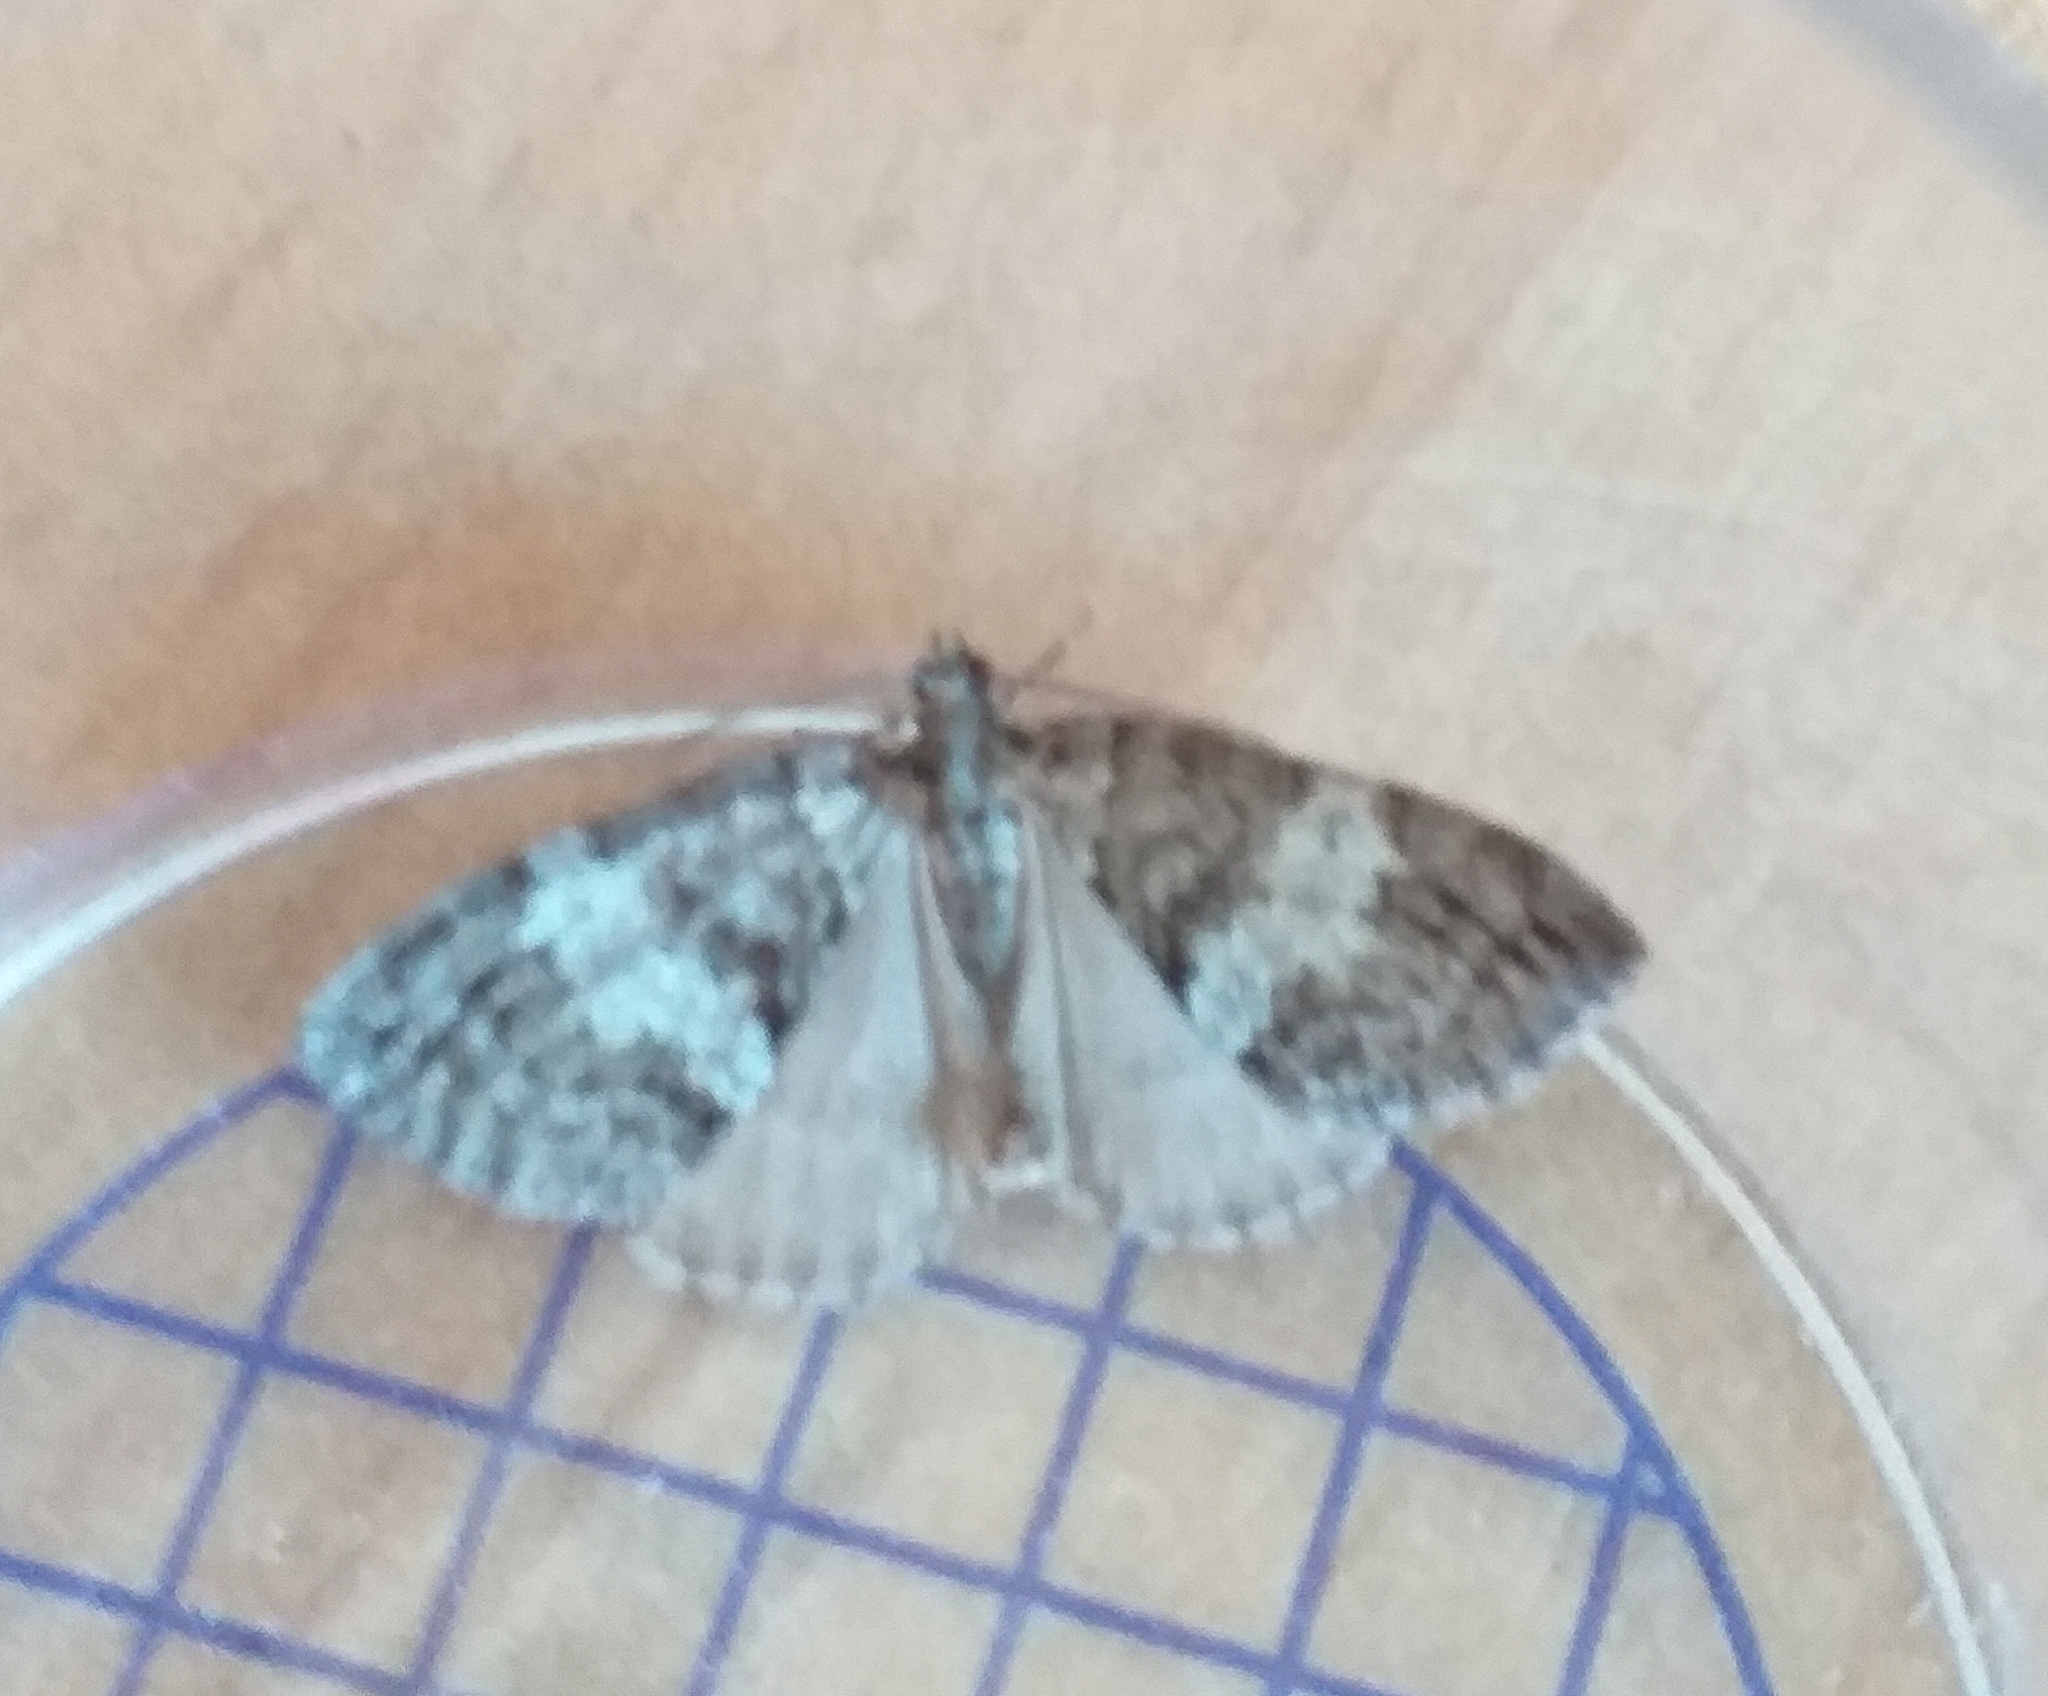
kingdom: Animalia
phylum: Arthropoda
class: Insecta
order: Lepidoptera
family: Geometridae
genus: Hydriomena
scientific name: Hydriomena impluviata
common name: May highflyer
